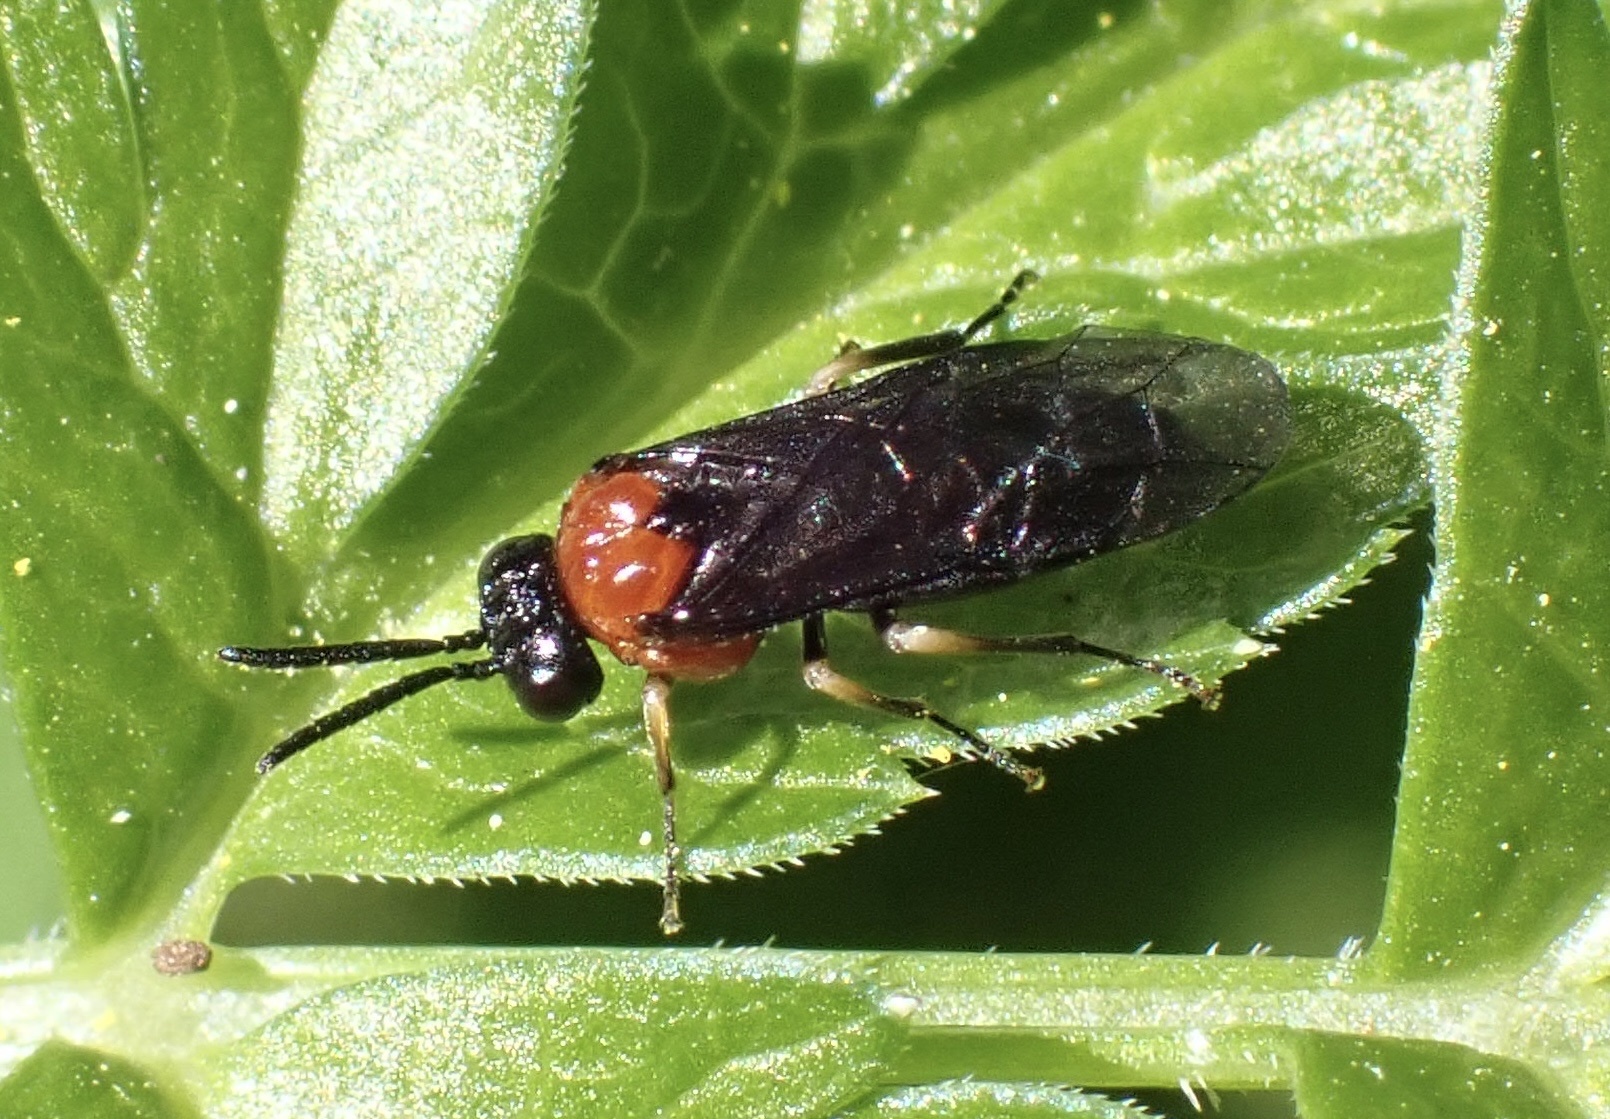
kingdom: Animalia
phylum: Arthropoda
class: Insecta
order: Hymenoptera
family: Tenthredinidae
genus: Eutomostethus
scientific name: Eutomostethus ephippium
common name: Tenthredid wasp
